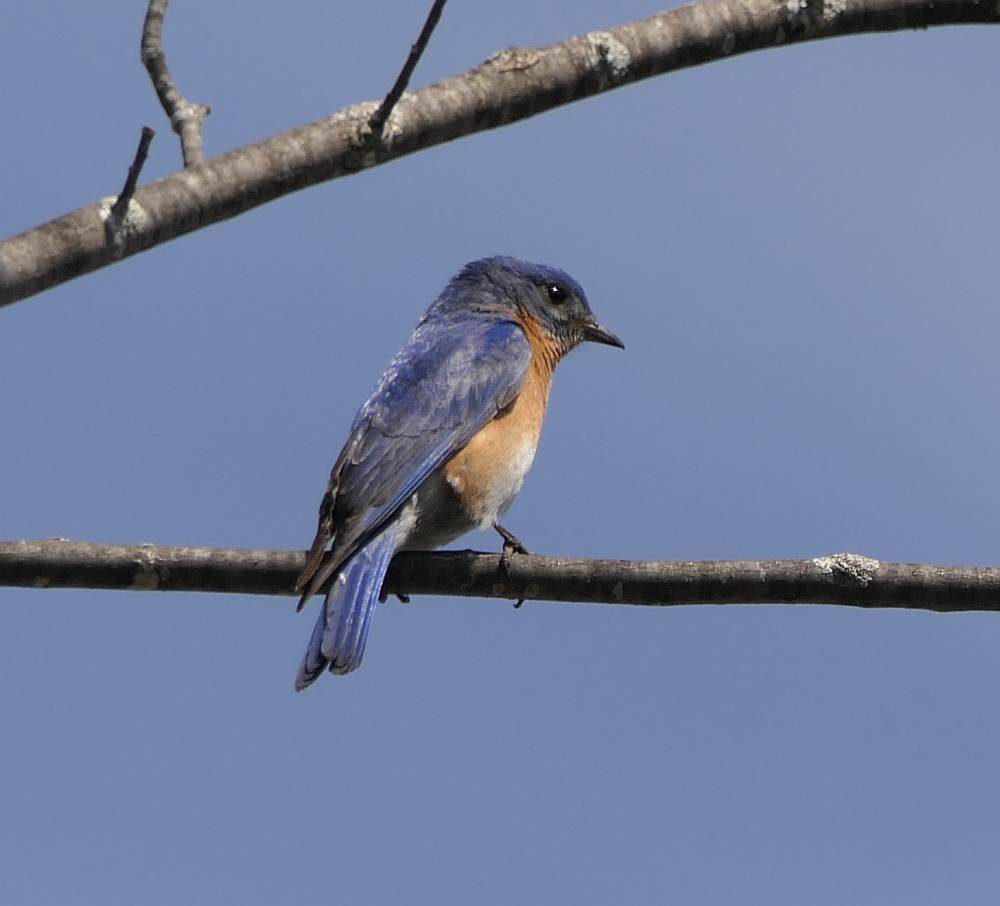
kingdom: Animalia
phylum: Chordata
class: Aves
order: Passeriformes
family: Turdidae
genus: Sialia
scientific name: Sialia sialis
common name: Eastern bluebird
